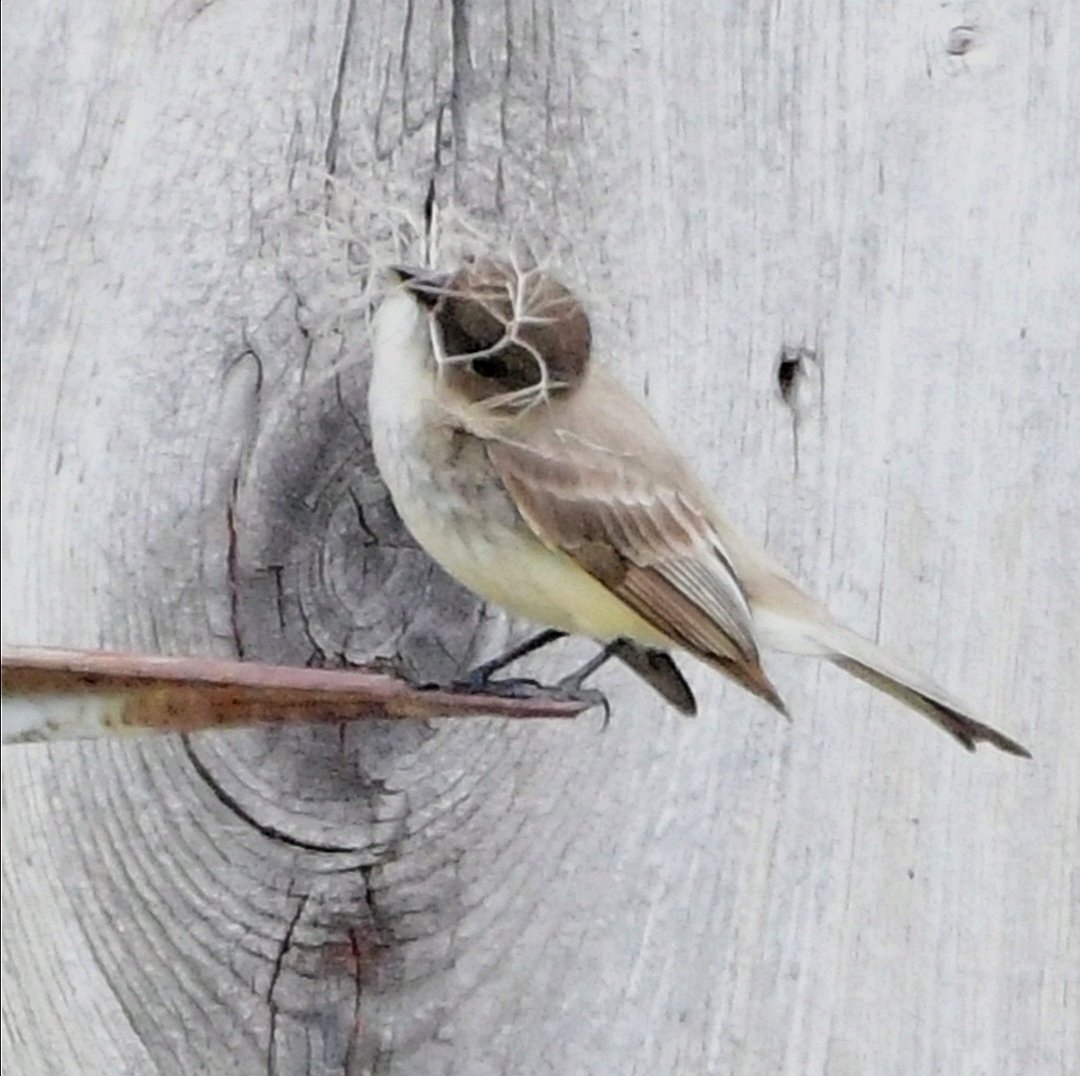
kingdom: Animalia
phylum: Chordata
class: Aves
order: Passeriformes
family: Tyrannidae
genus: Sayornis
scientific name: Sayornis phoebe
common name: Eastern phoebe
